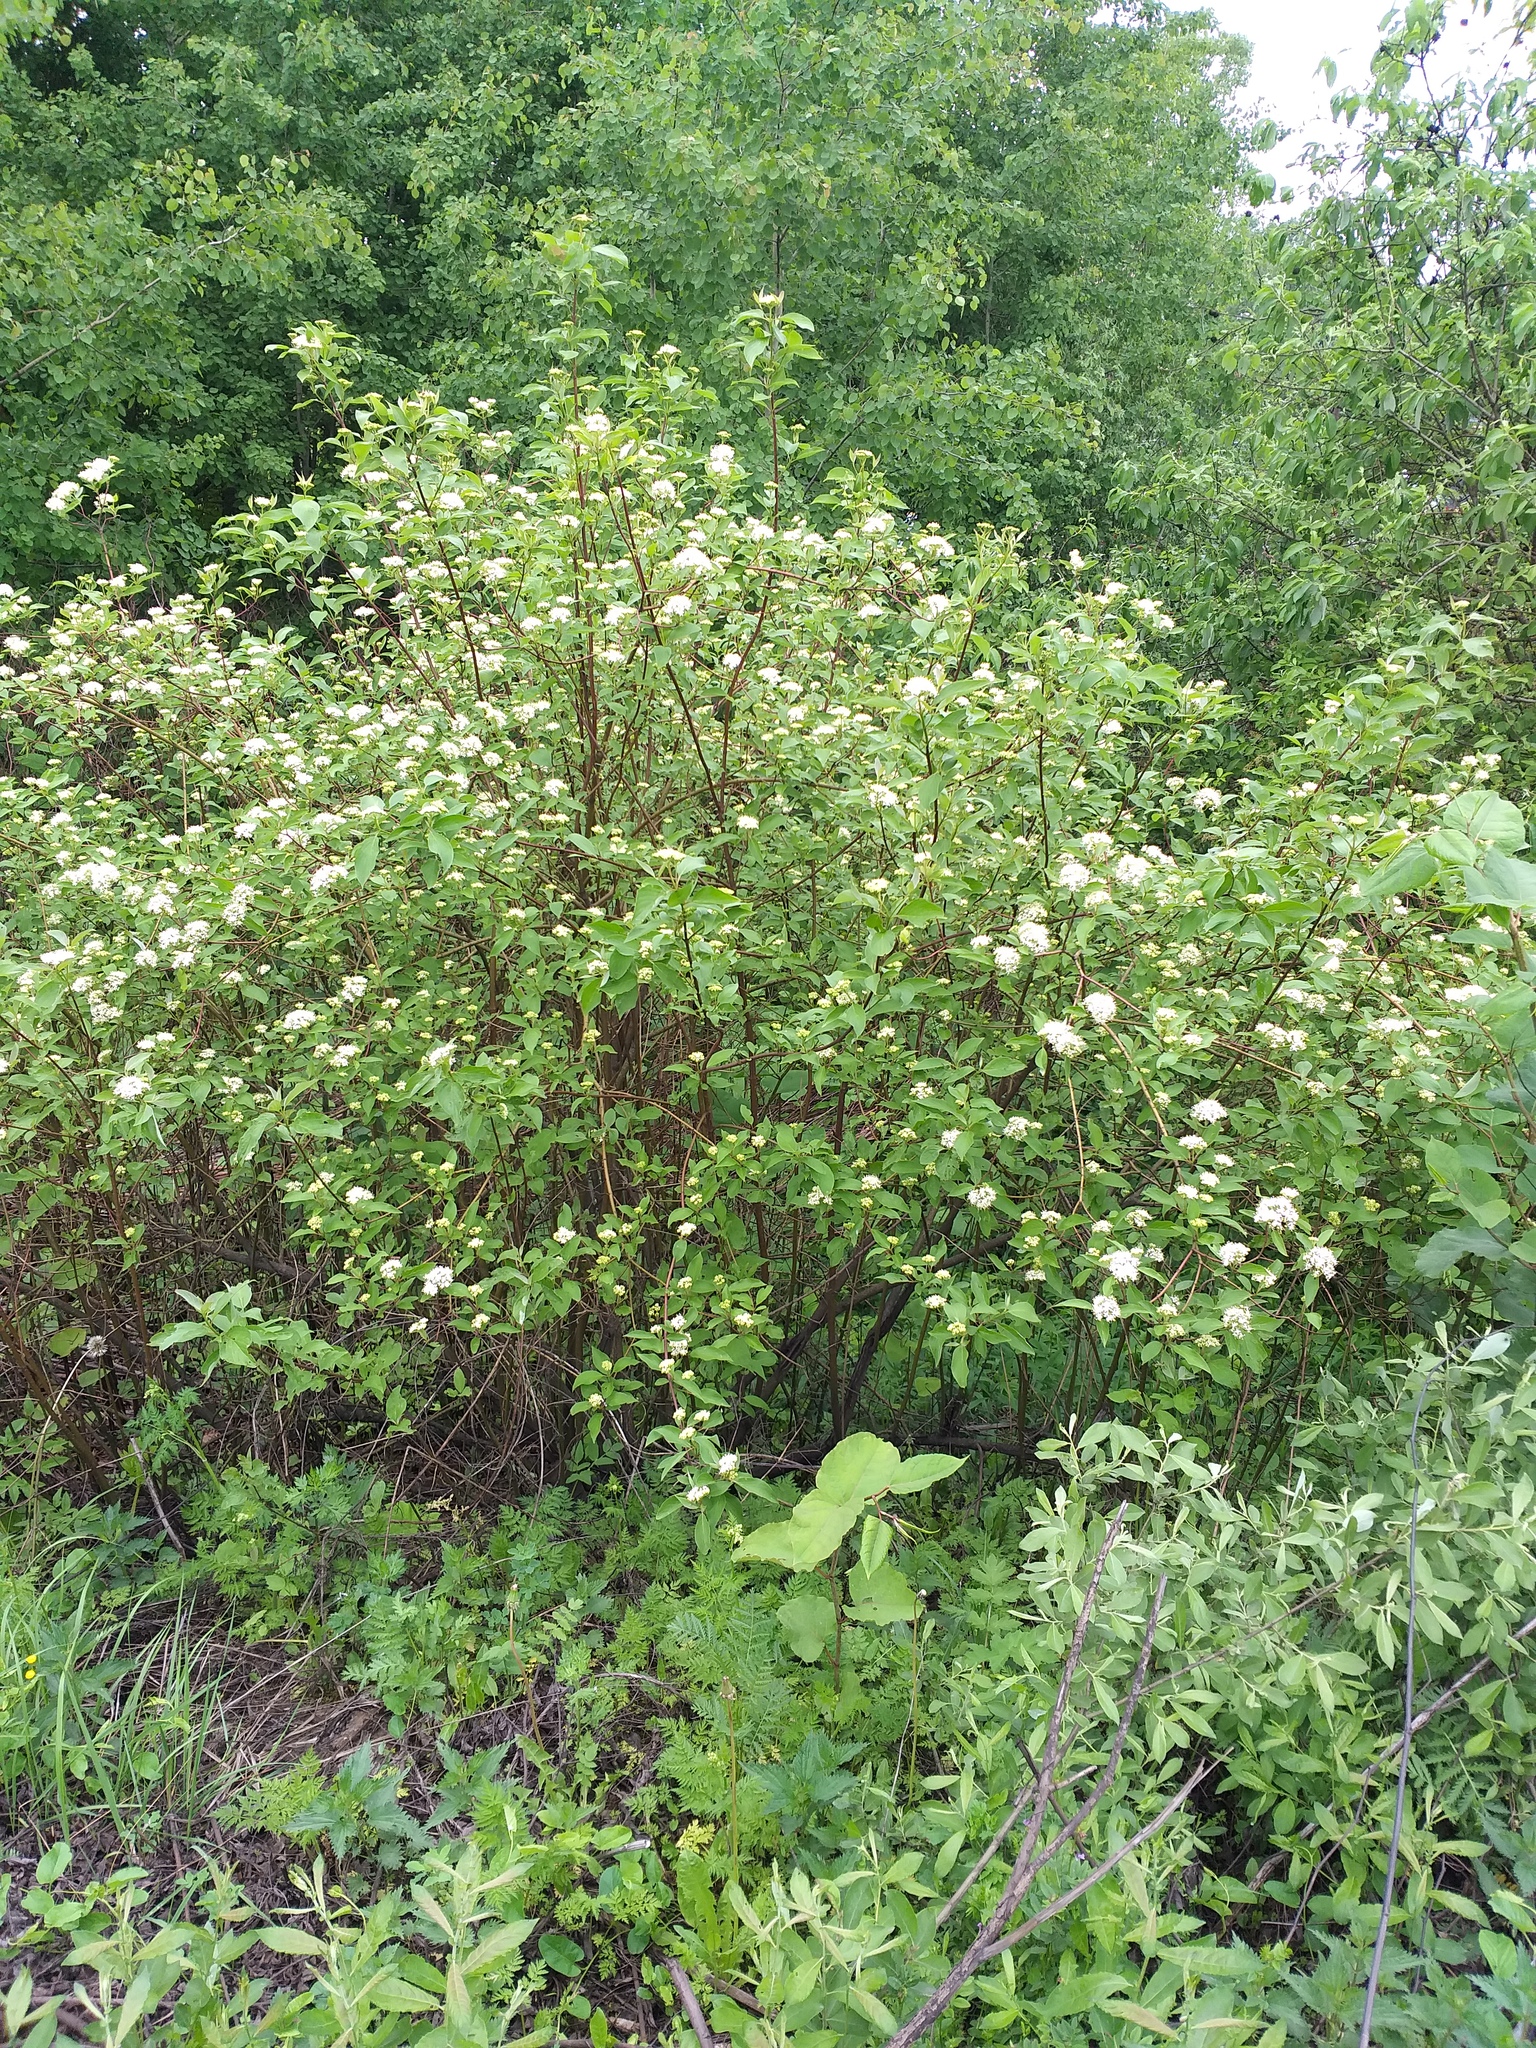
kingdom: Plantae
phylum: Tracheophyta
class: Magnoliopsida
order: Cornales
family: Cornaceae
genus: Cornus
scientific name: Cornus sericea
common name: Red-osier dogwood
